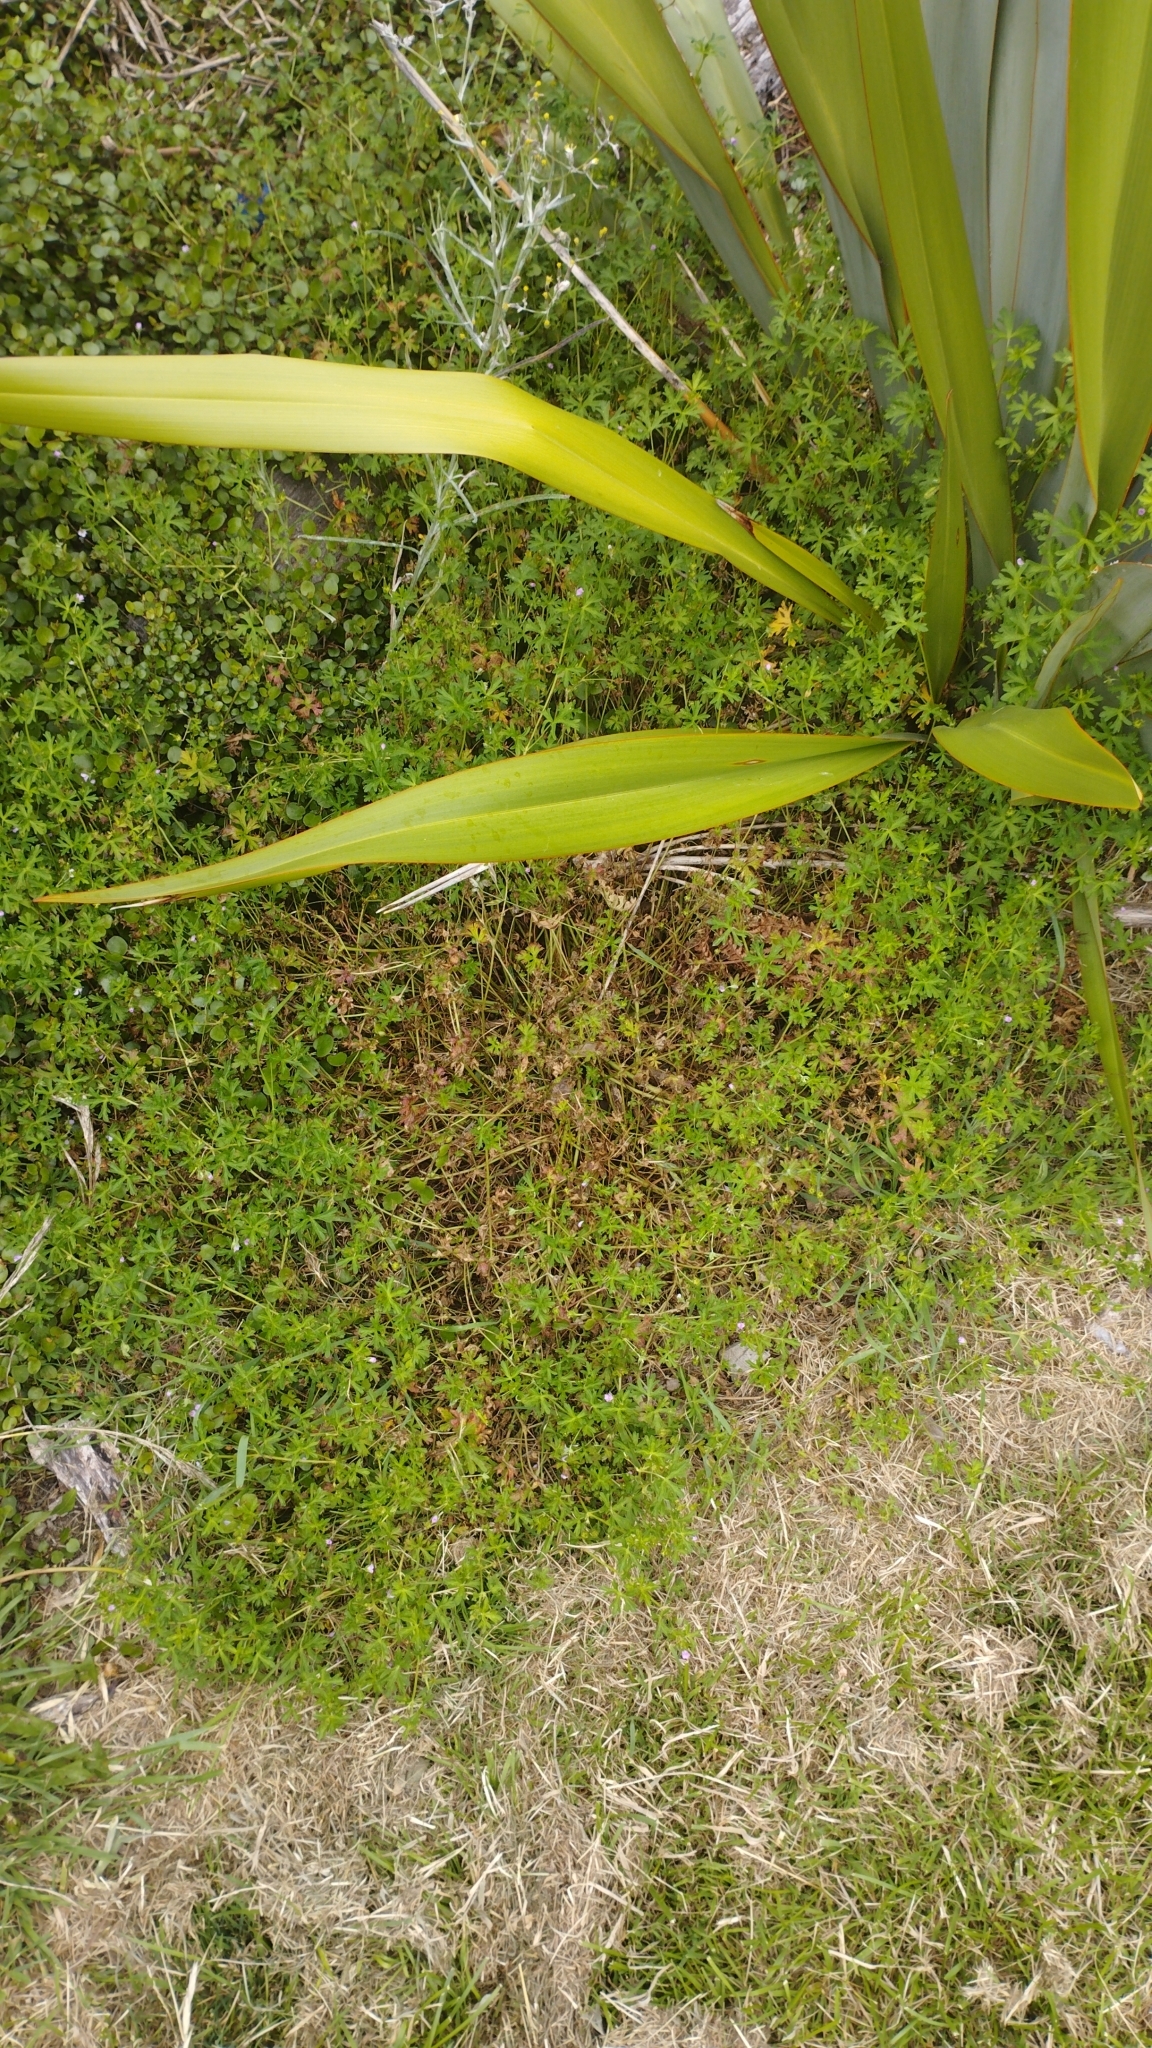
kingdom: Plantae
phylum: Tracheophyta
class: Magnoliopsida
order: Geraniales
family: Geraniaceae
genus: Geranium
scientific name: Geranium retrorsum
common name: New zealand geranium
